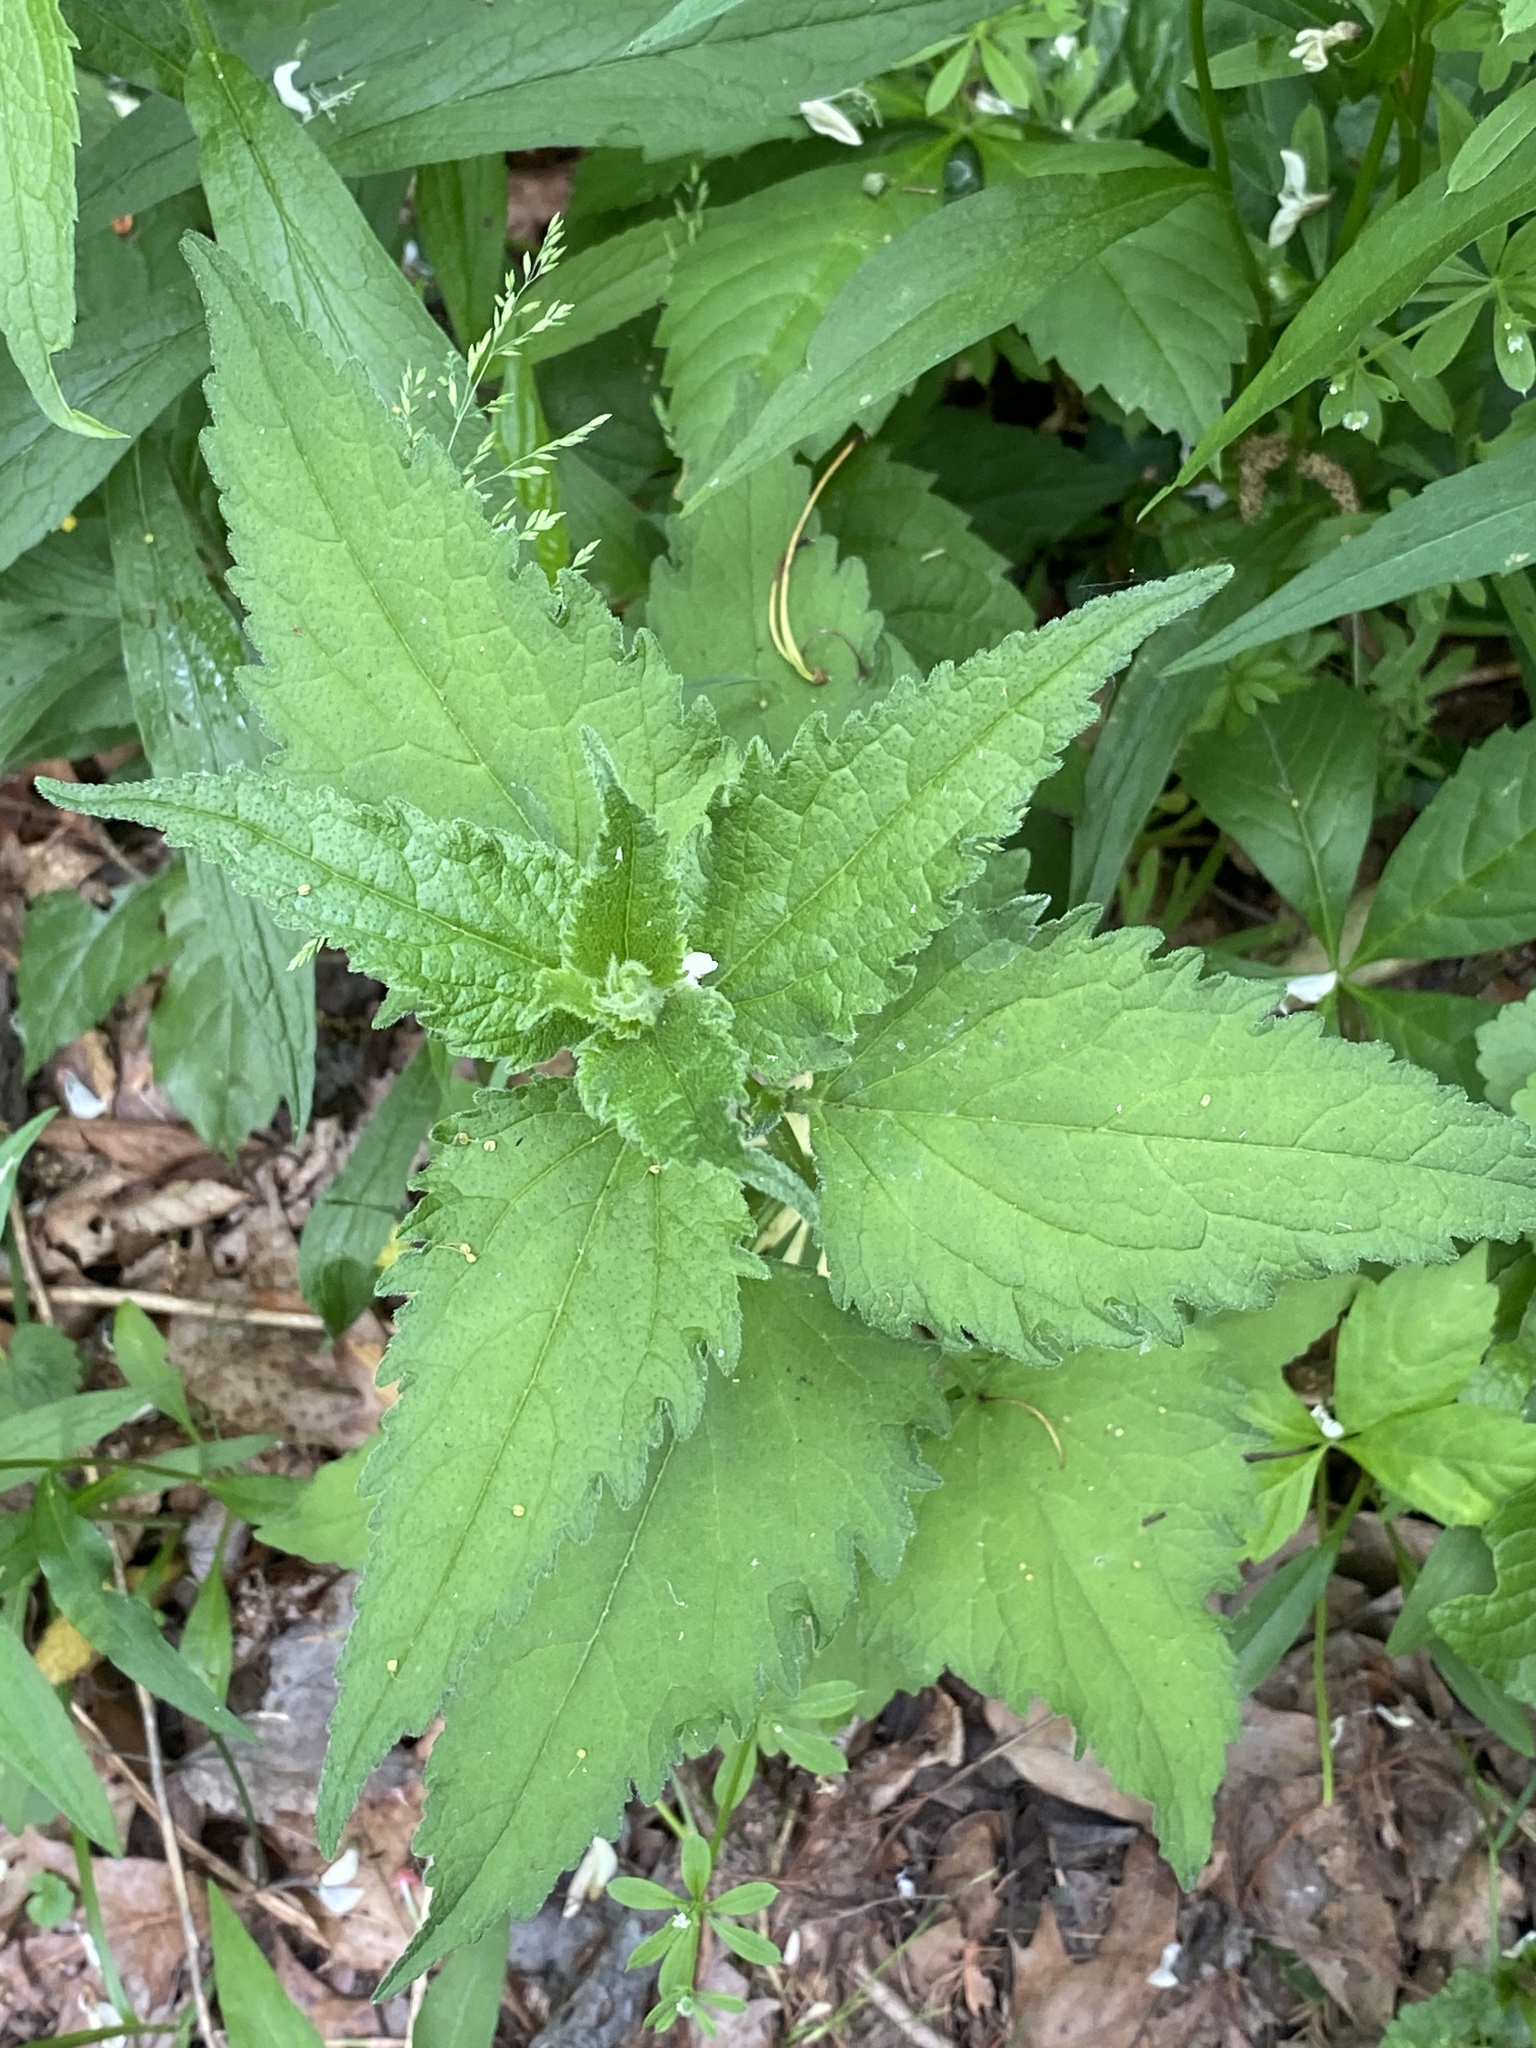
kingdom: Plantae
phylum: Tracheophyta
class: Magnoliopsida
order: Rosales
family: Urticaceae
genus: Urtica
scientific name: Urtica dioica
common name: Common nettle
